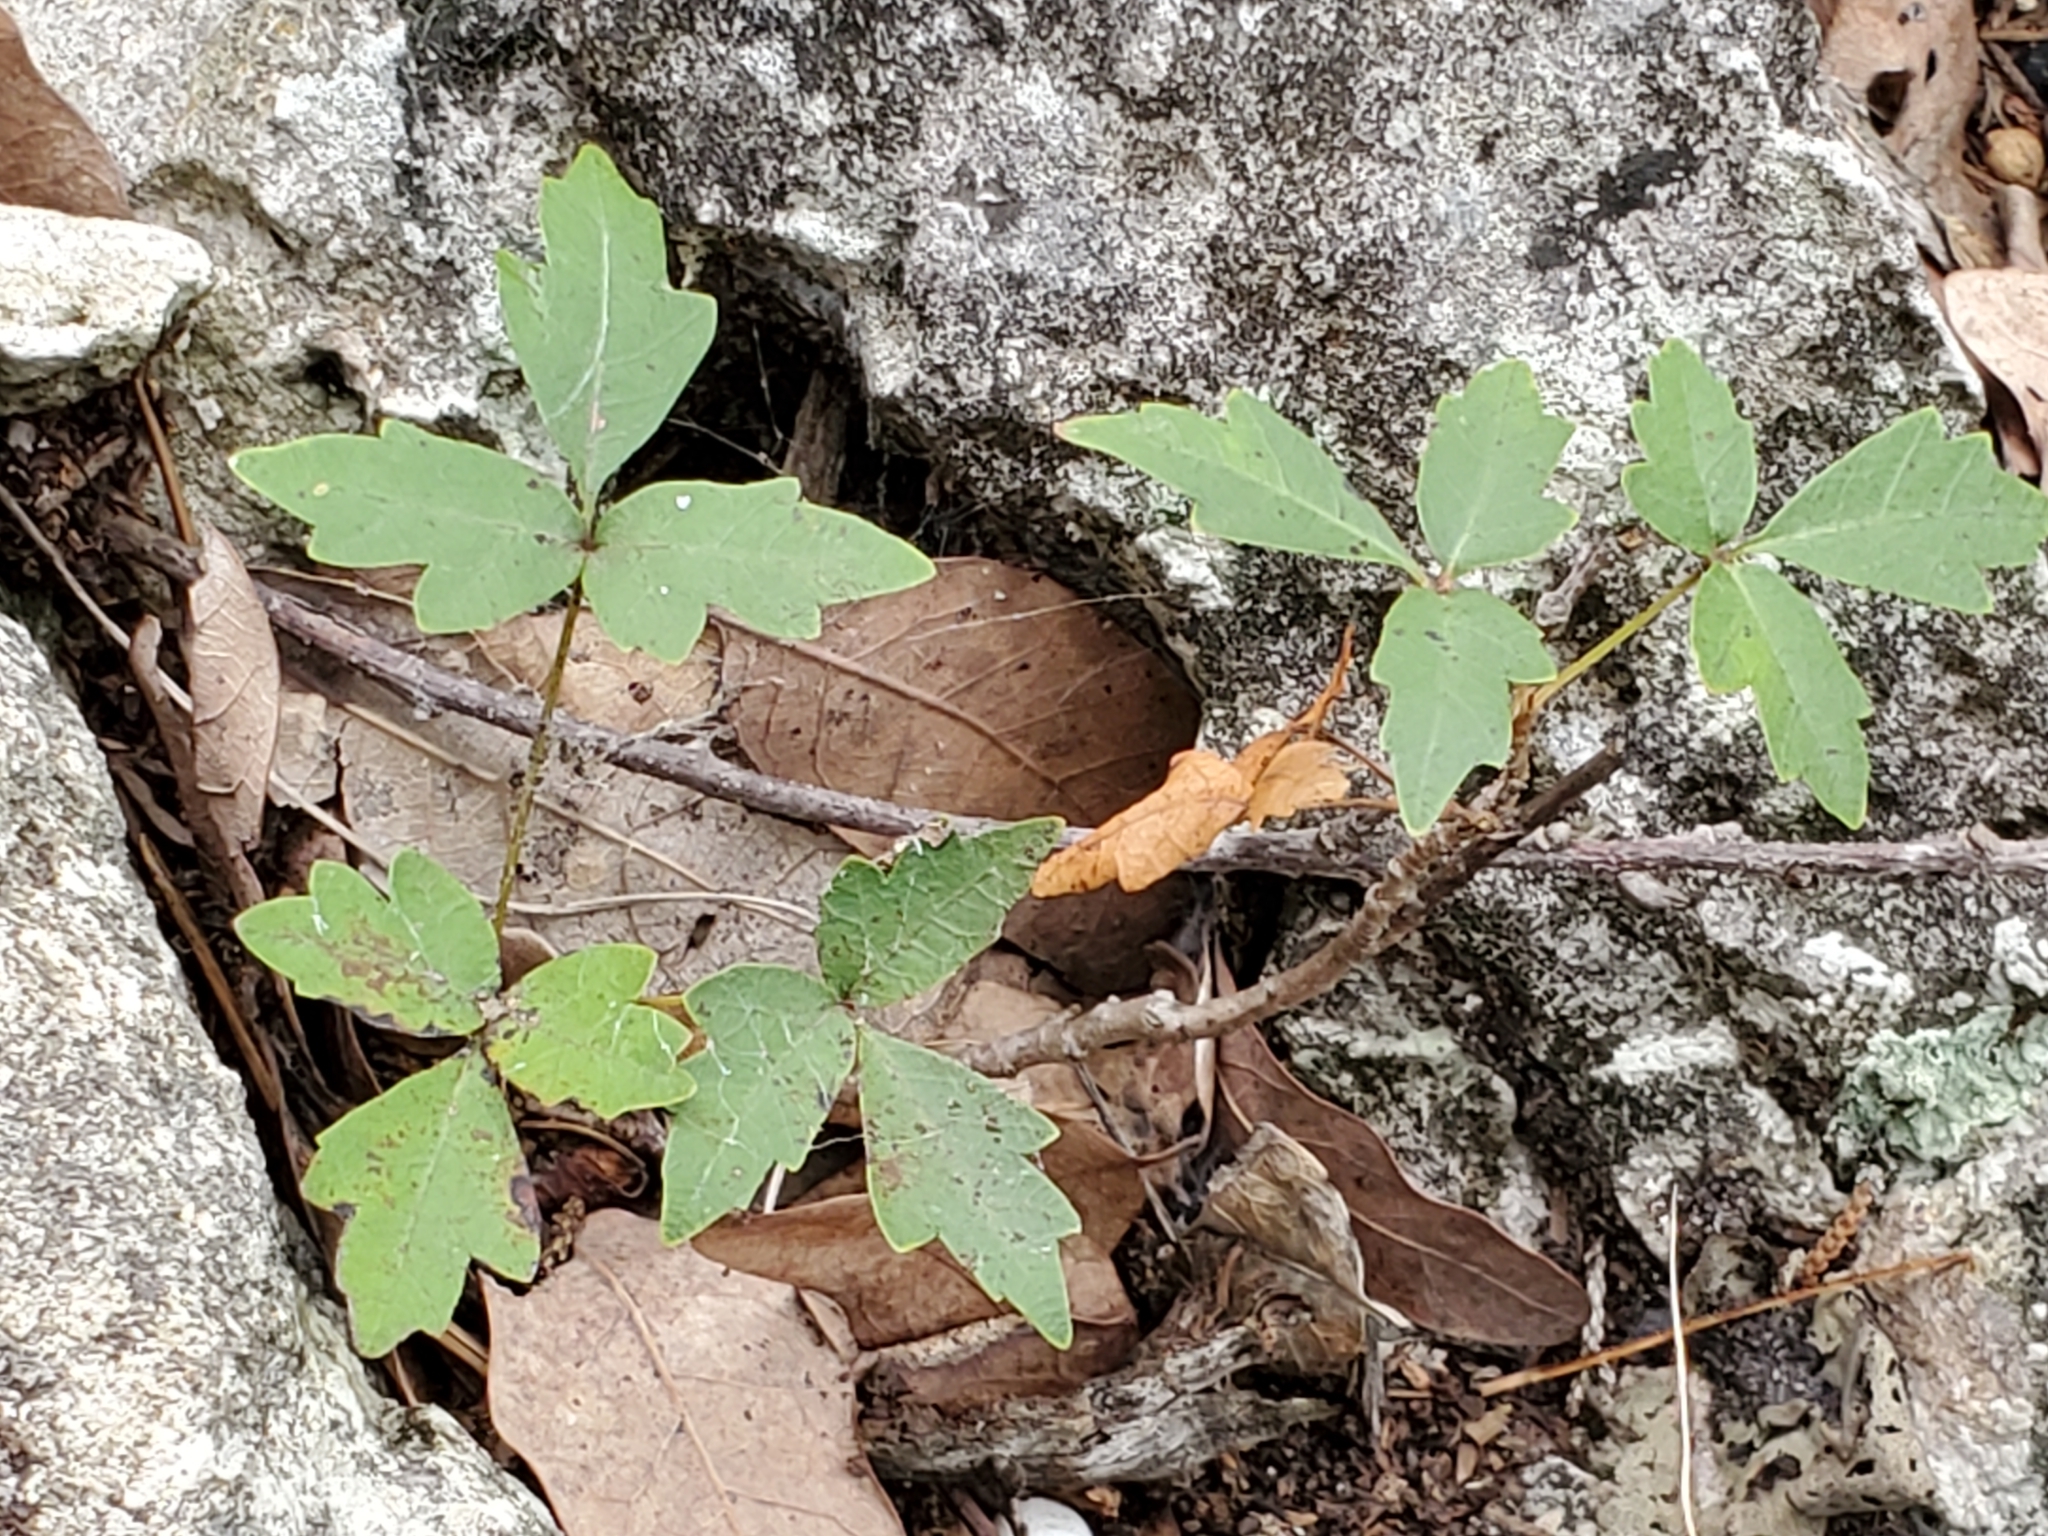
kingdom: Plantae
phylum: Tracheophyta
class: Magnoliopsida
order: Sapindales
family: Anacardiaceae
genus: Toxicodendron
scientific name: Toxicodendron radicans
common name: Poison ivy
